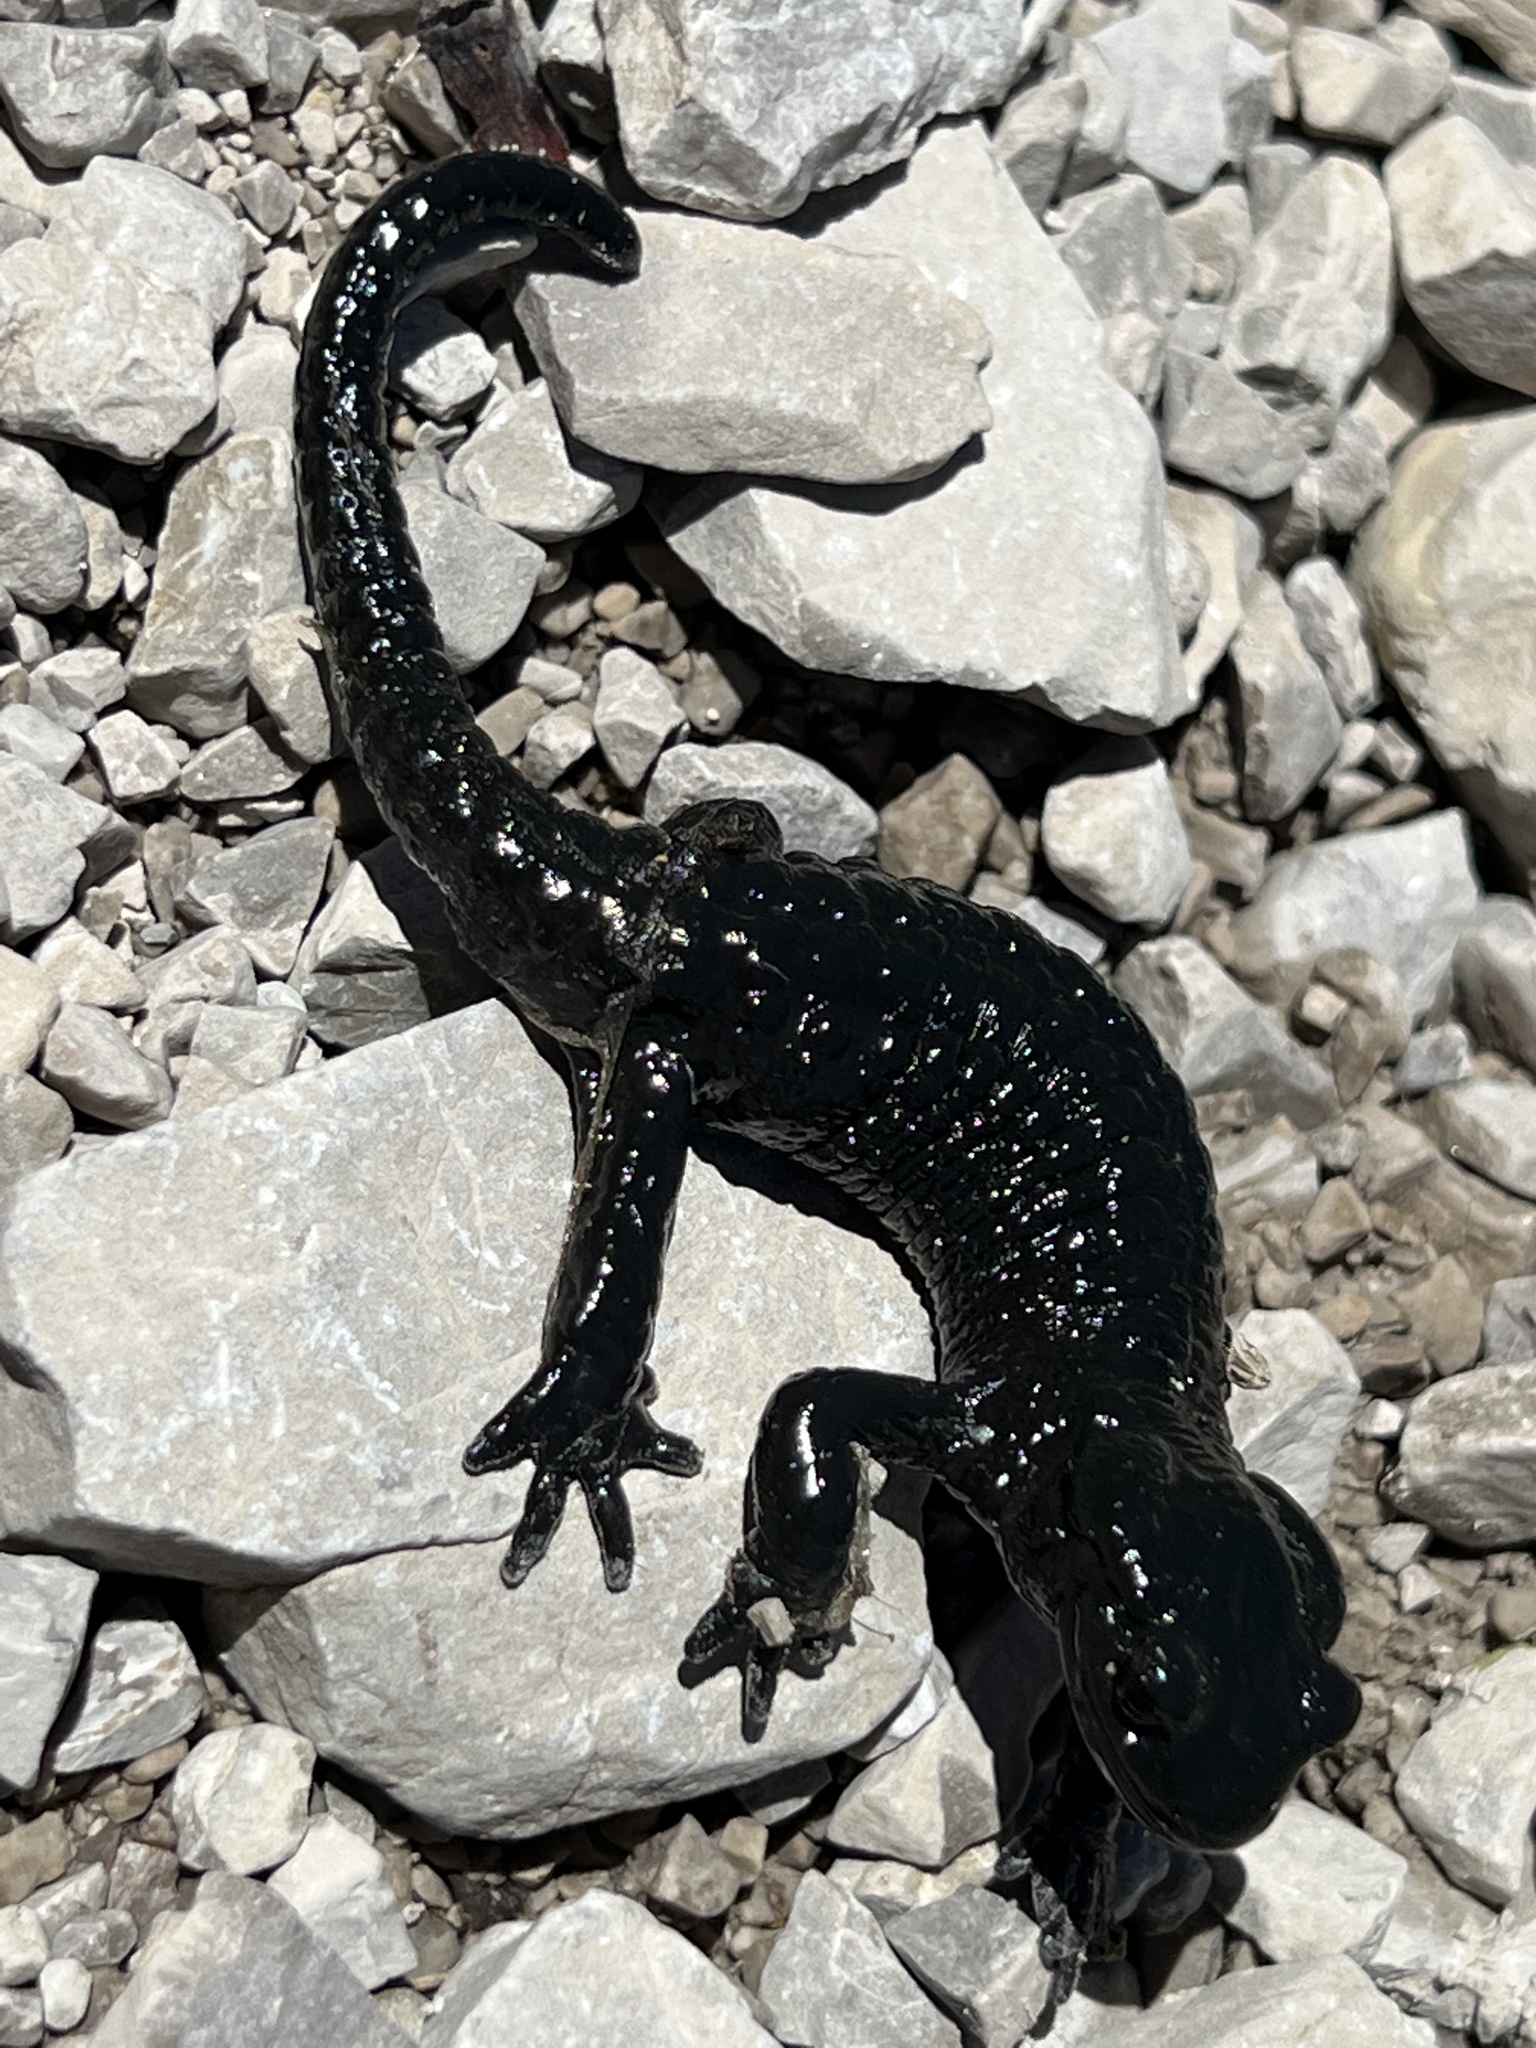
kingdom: Animalia
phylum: Chordata
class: Amphibia
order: Caudata
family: Salamandridae
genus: Salamandra
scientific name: Salamandra atra
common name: Alpine salamander
